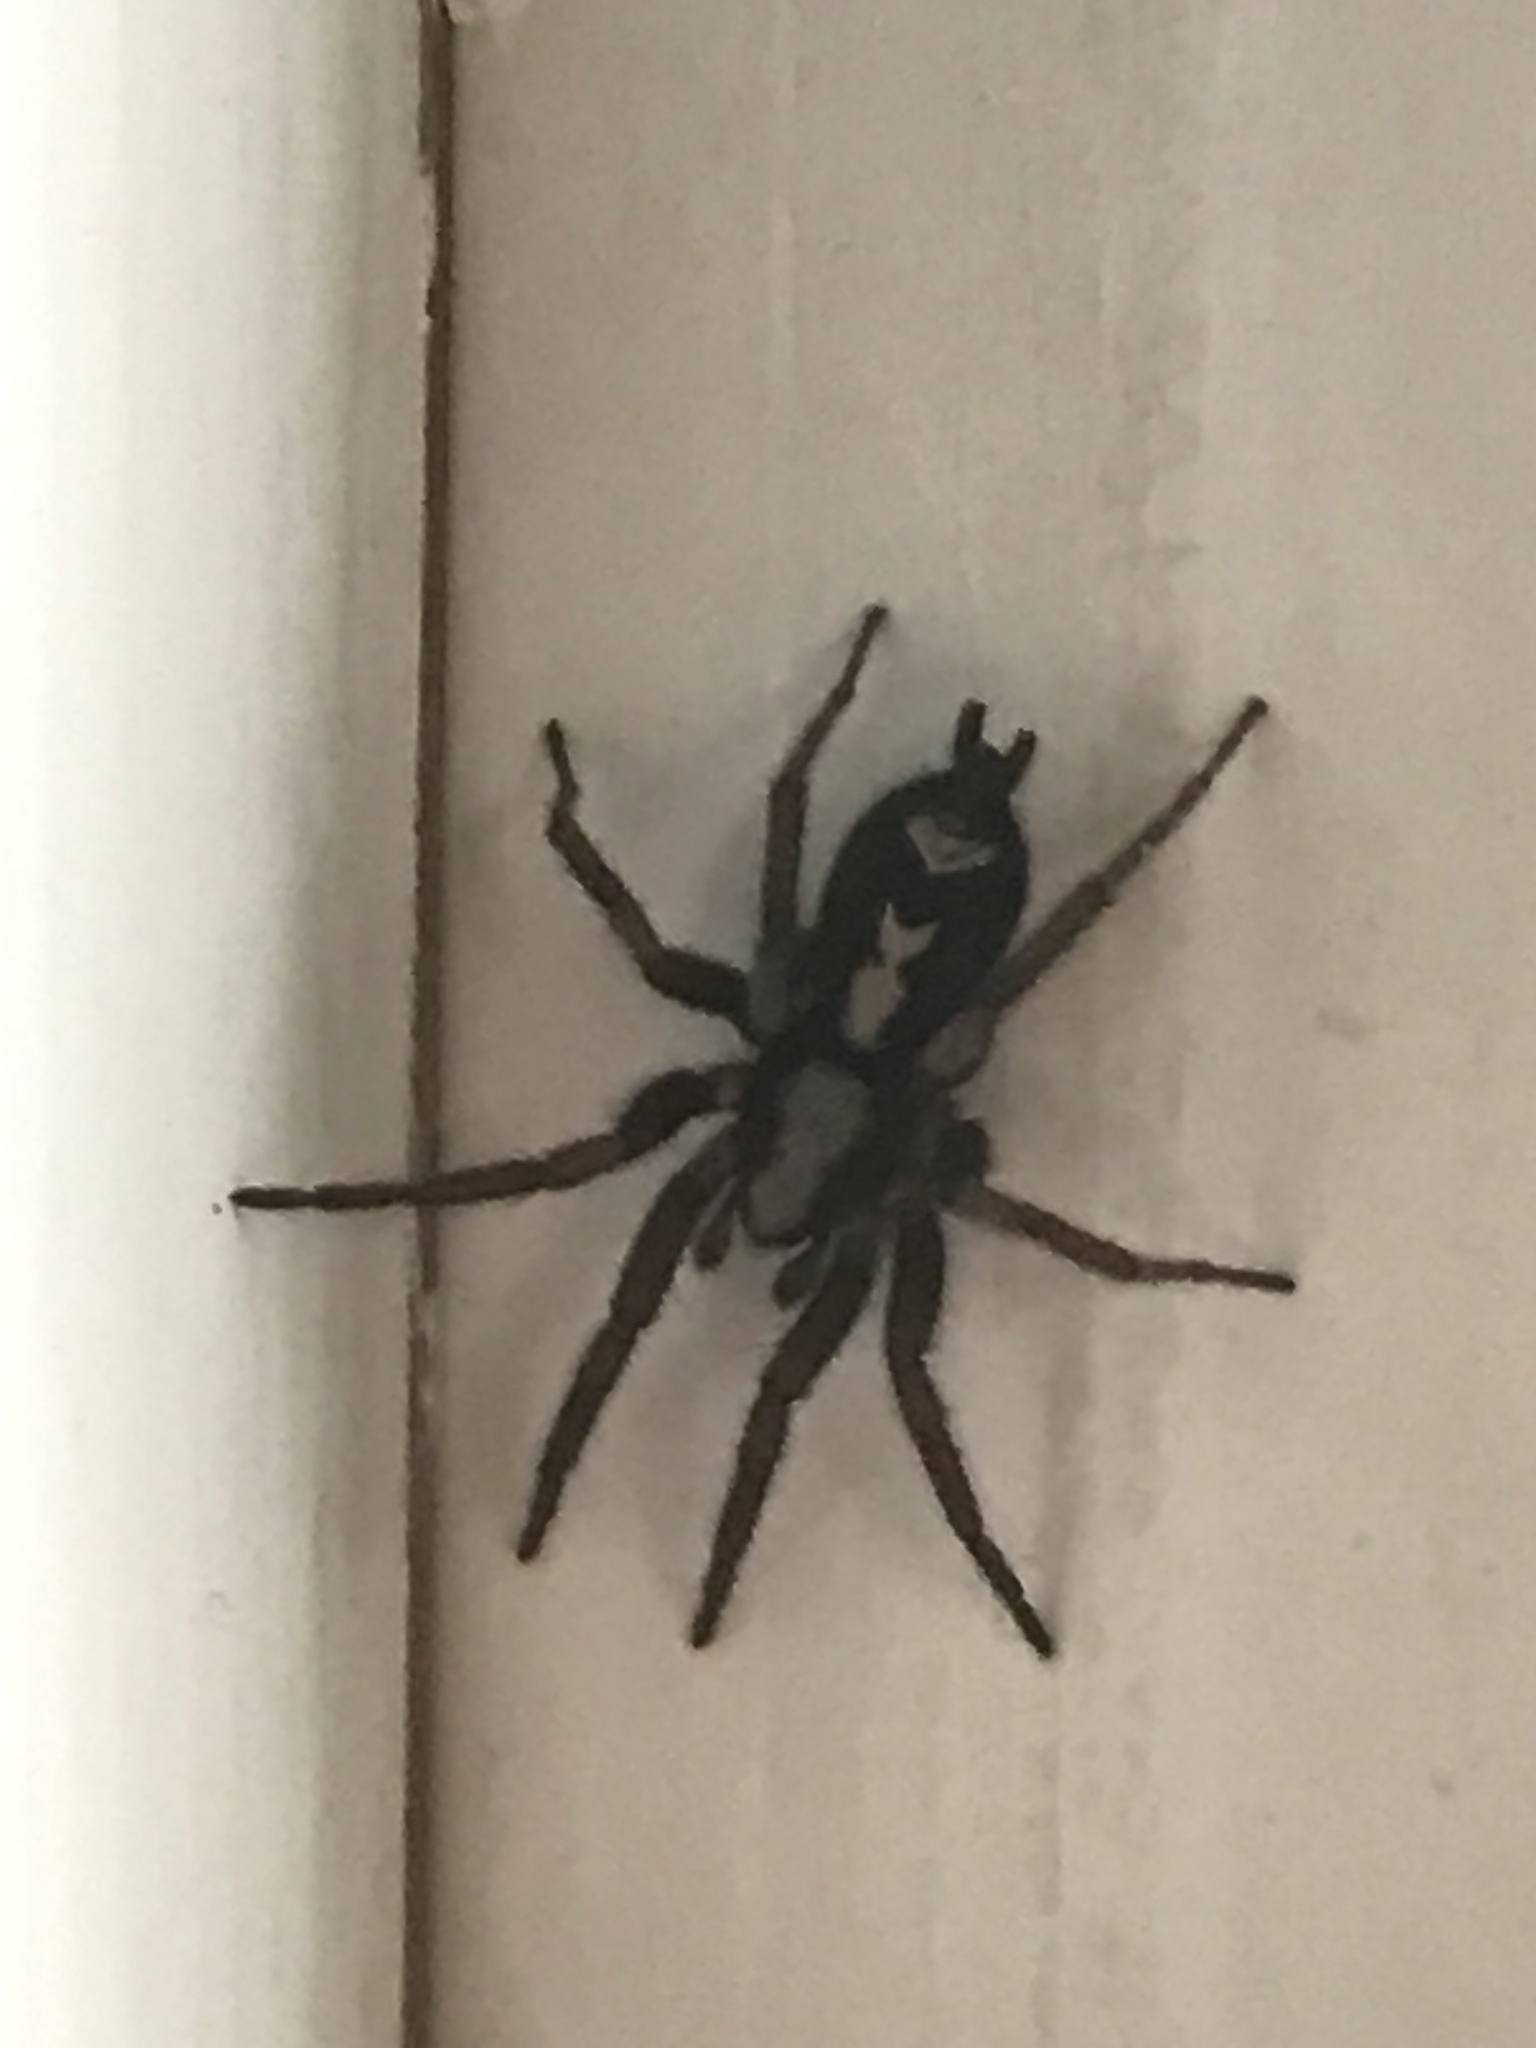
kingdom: Animalia
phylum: Arthropoda
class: Arachnida
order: Araneae
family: Gnaphosidae
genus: Herpyllus
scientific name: Herpyllus ecclesiasticus
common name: Eastern parson spider
